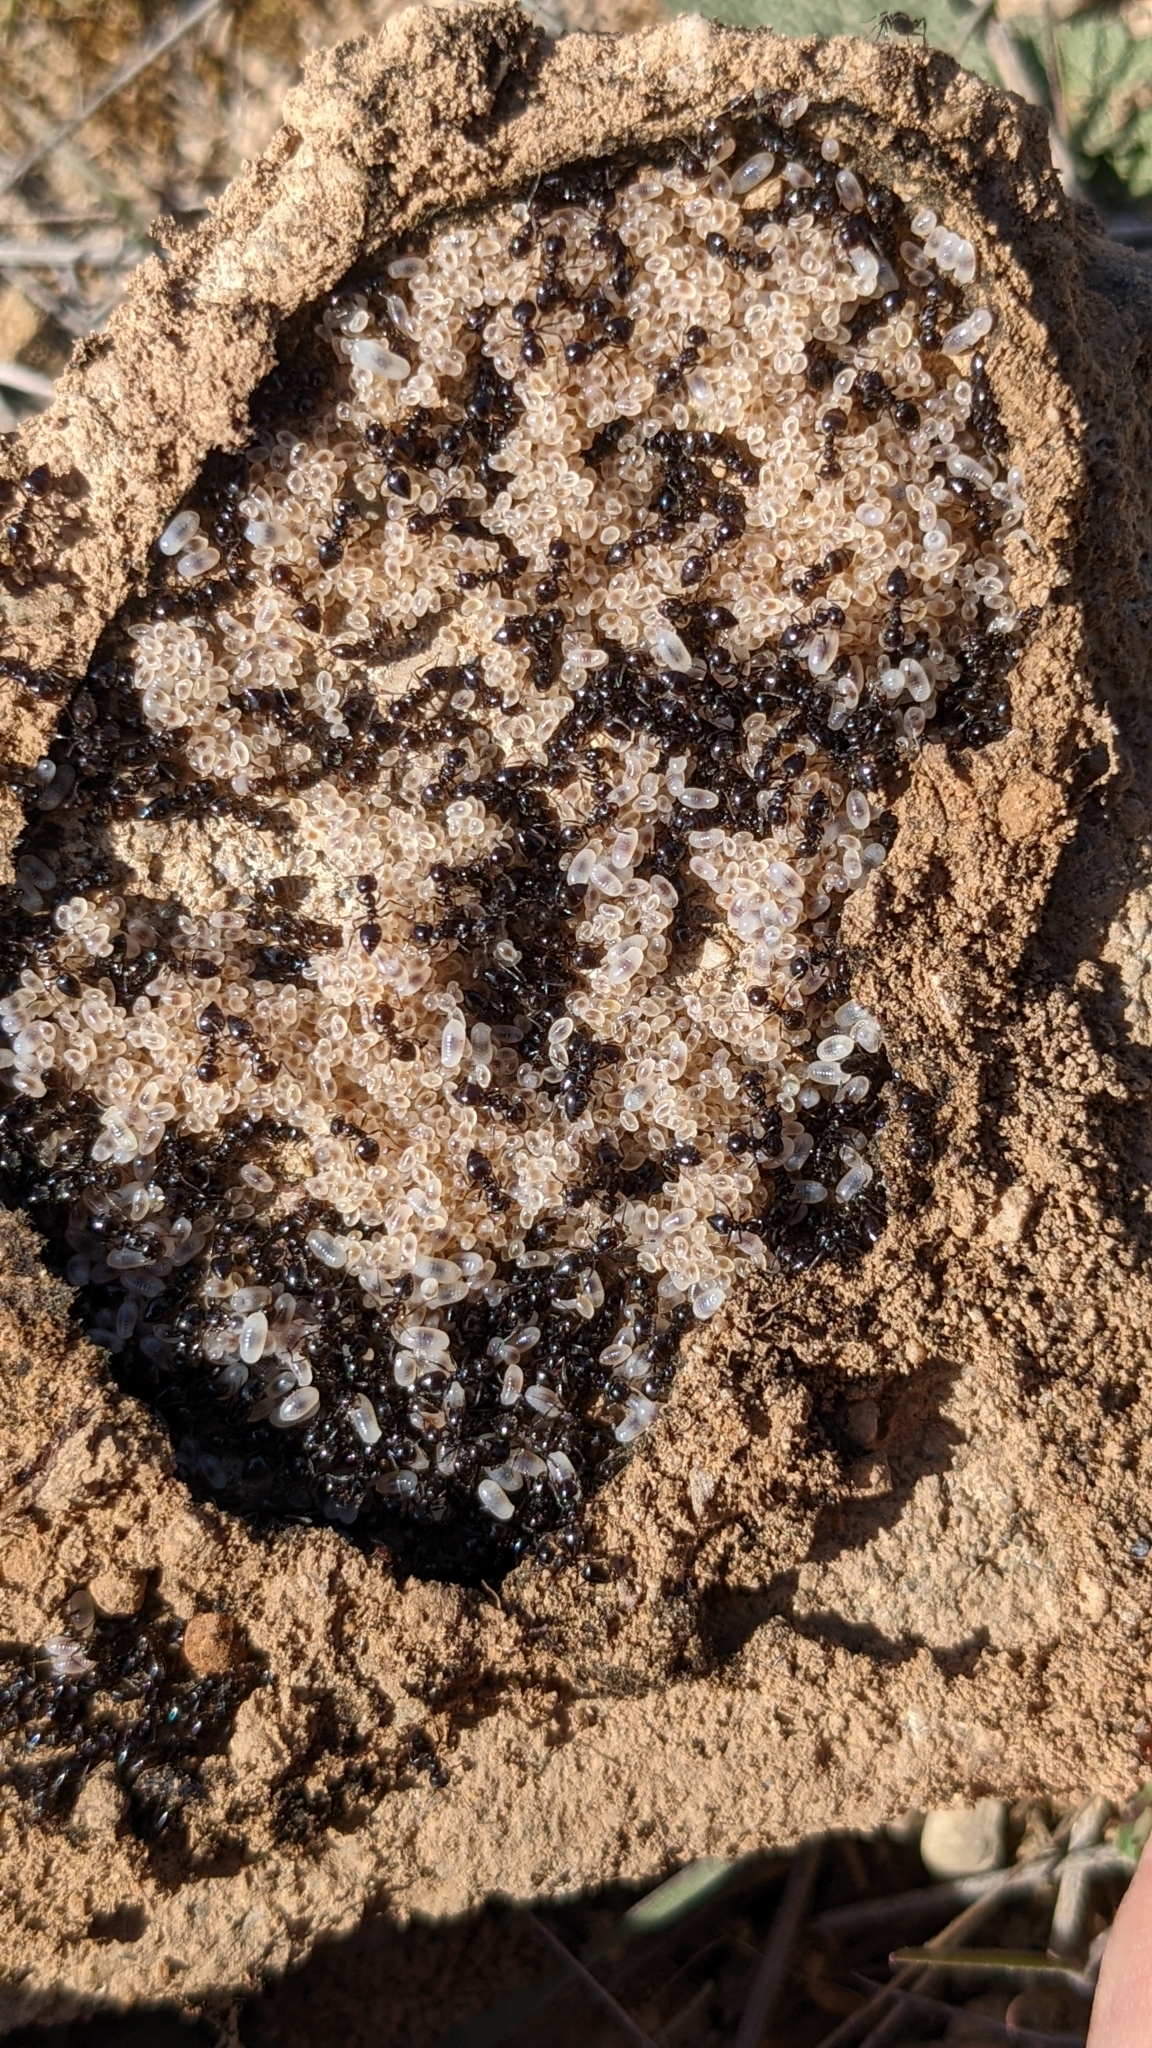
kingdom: Animalia
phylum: Arthropoda
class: Insecta
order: Hymenoptera
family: Formicidae
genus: Crematogaster
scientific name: Crematogaster auberti
